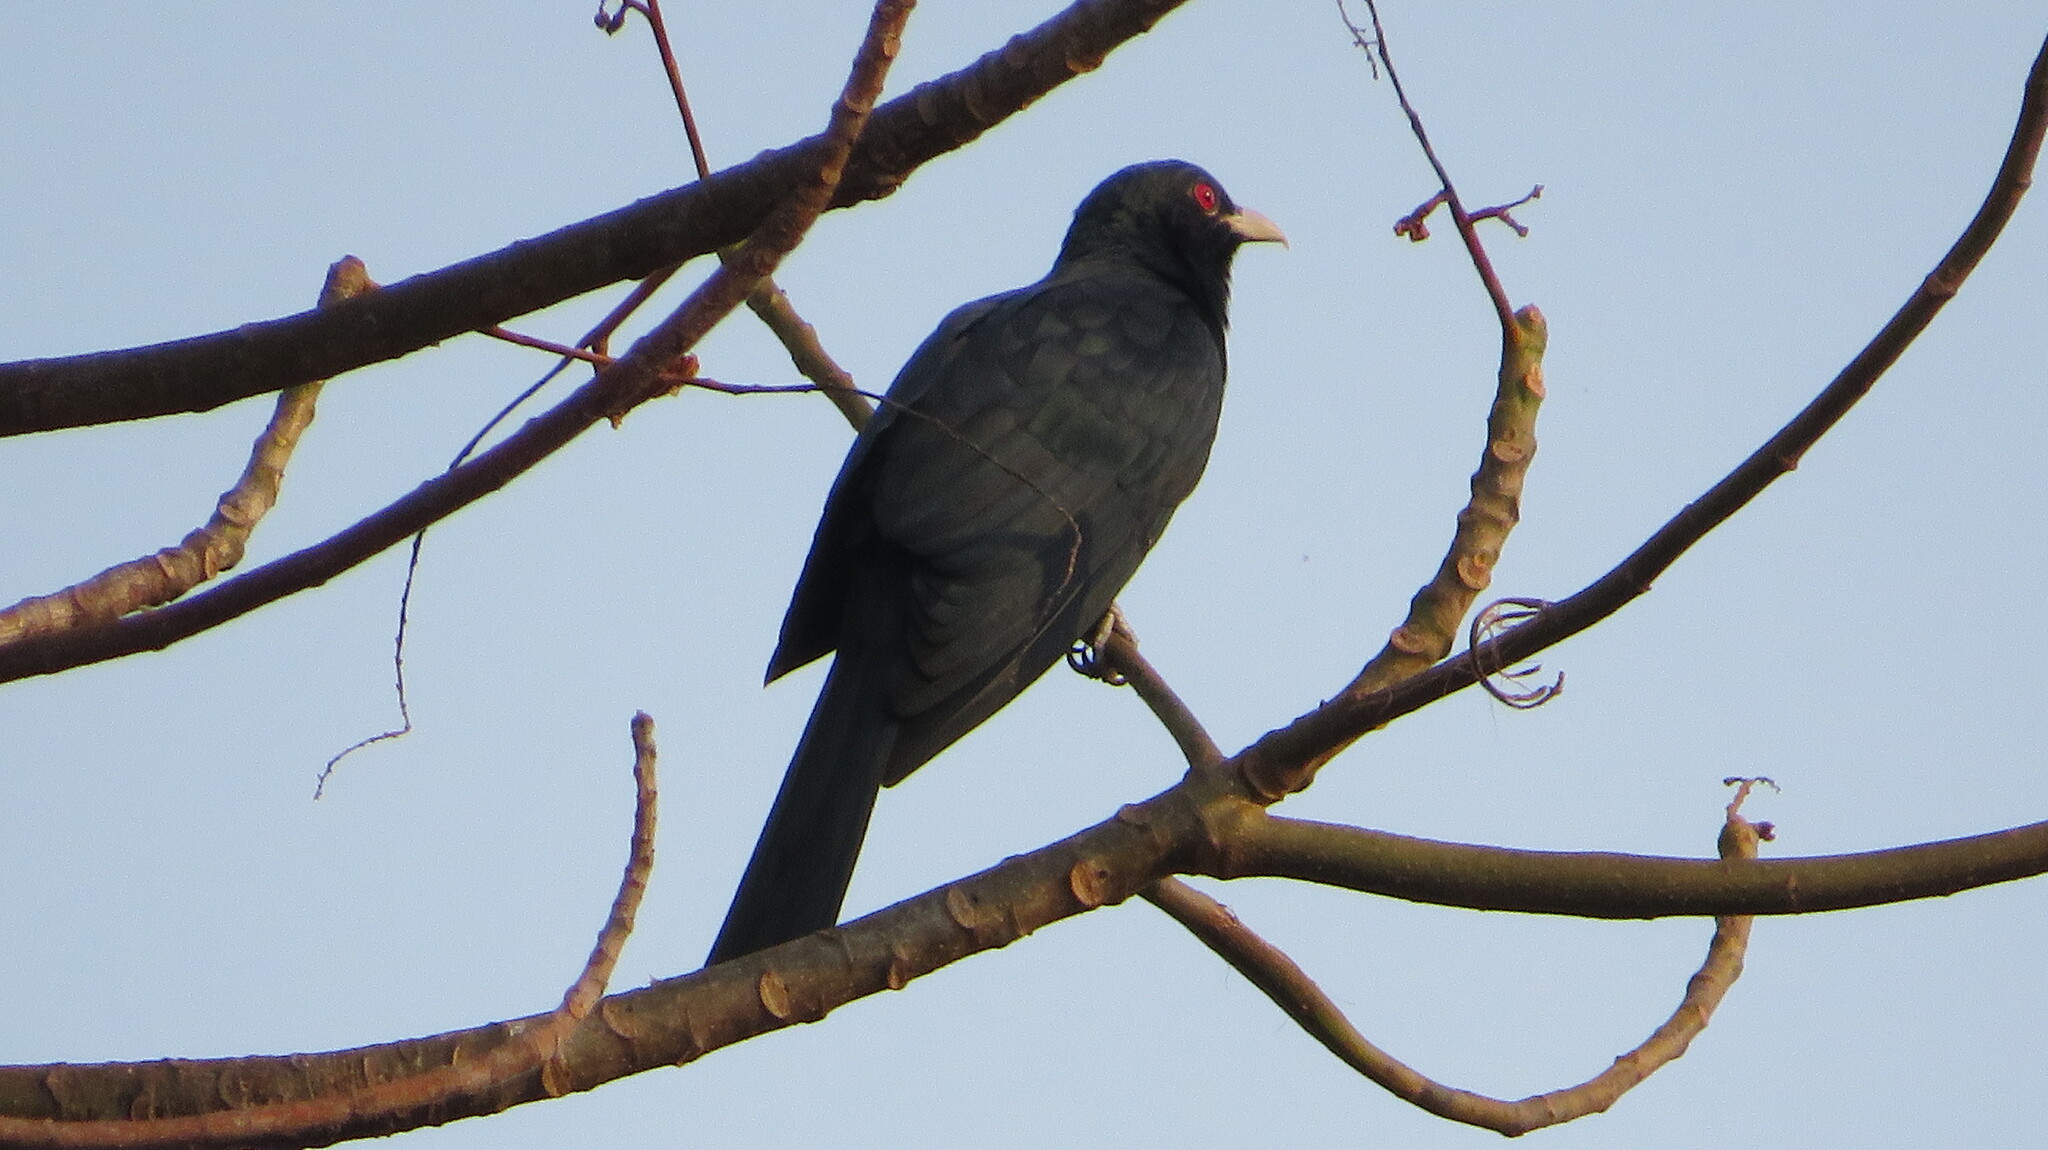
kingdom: Animalia
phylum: Chordata
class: Aves
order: Cuculiformes
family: Cuculidae
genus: Eudynamys
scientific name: Eudynamys scolopaceus
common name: Asian koel
